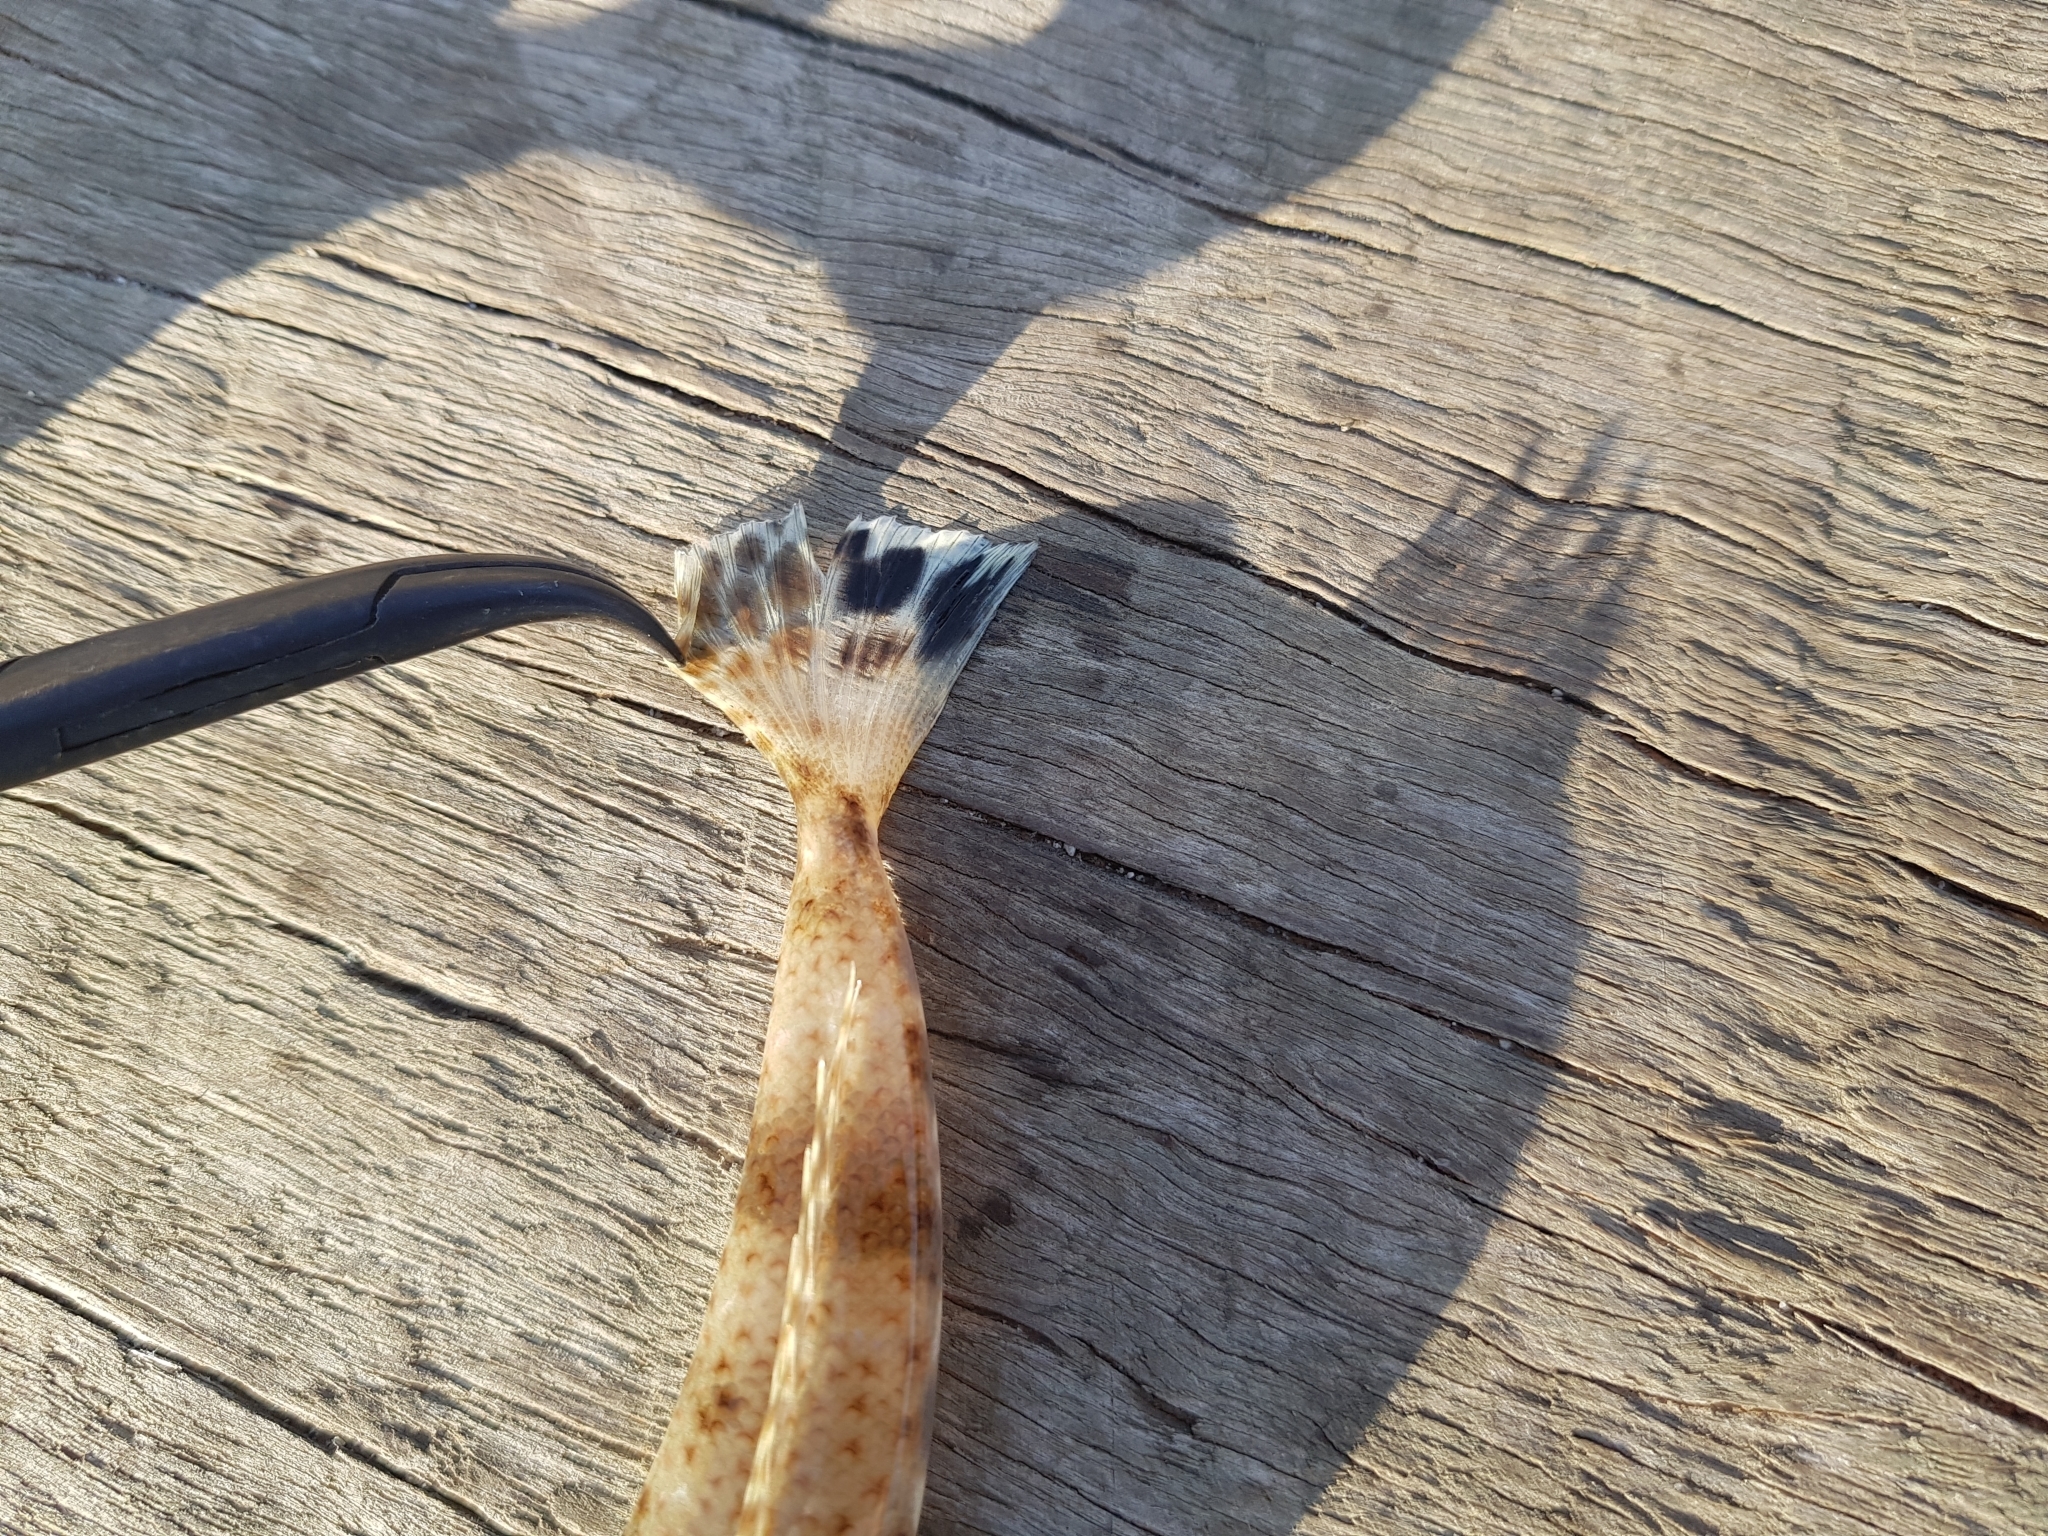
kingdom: Animalia
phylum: Chordata
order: Scorpaeniformes
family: Platycephalidae
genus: Platycephalus
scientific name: Platycephalus bassensis
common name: Sand flathead
